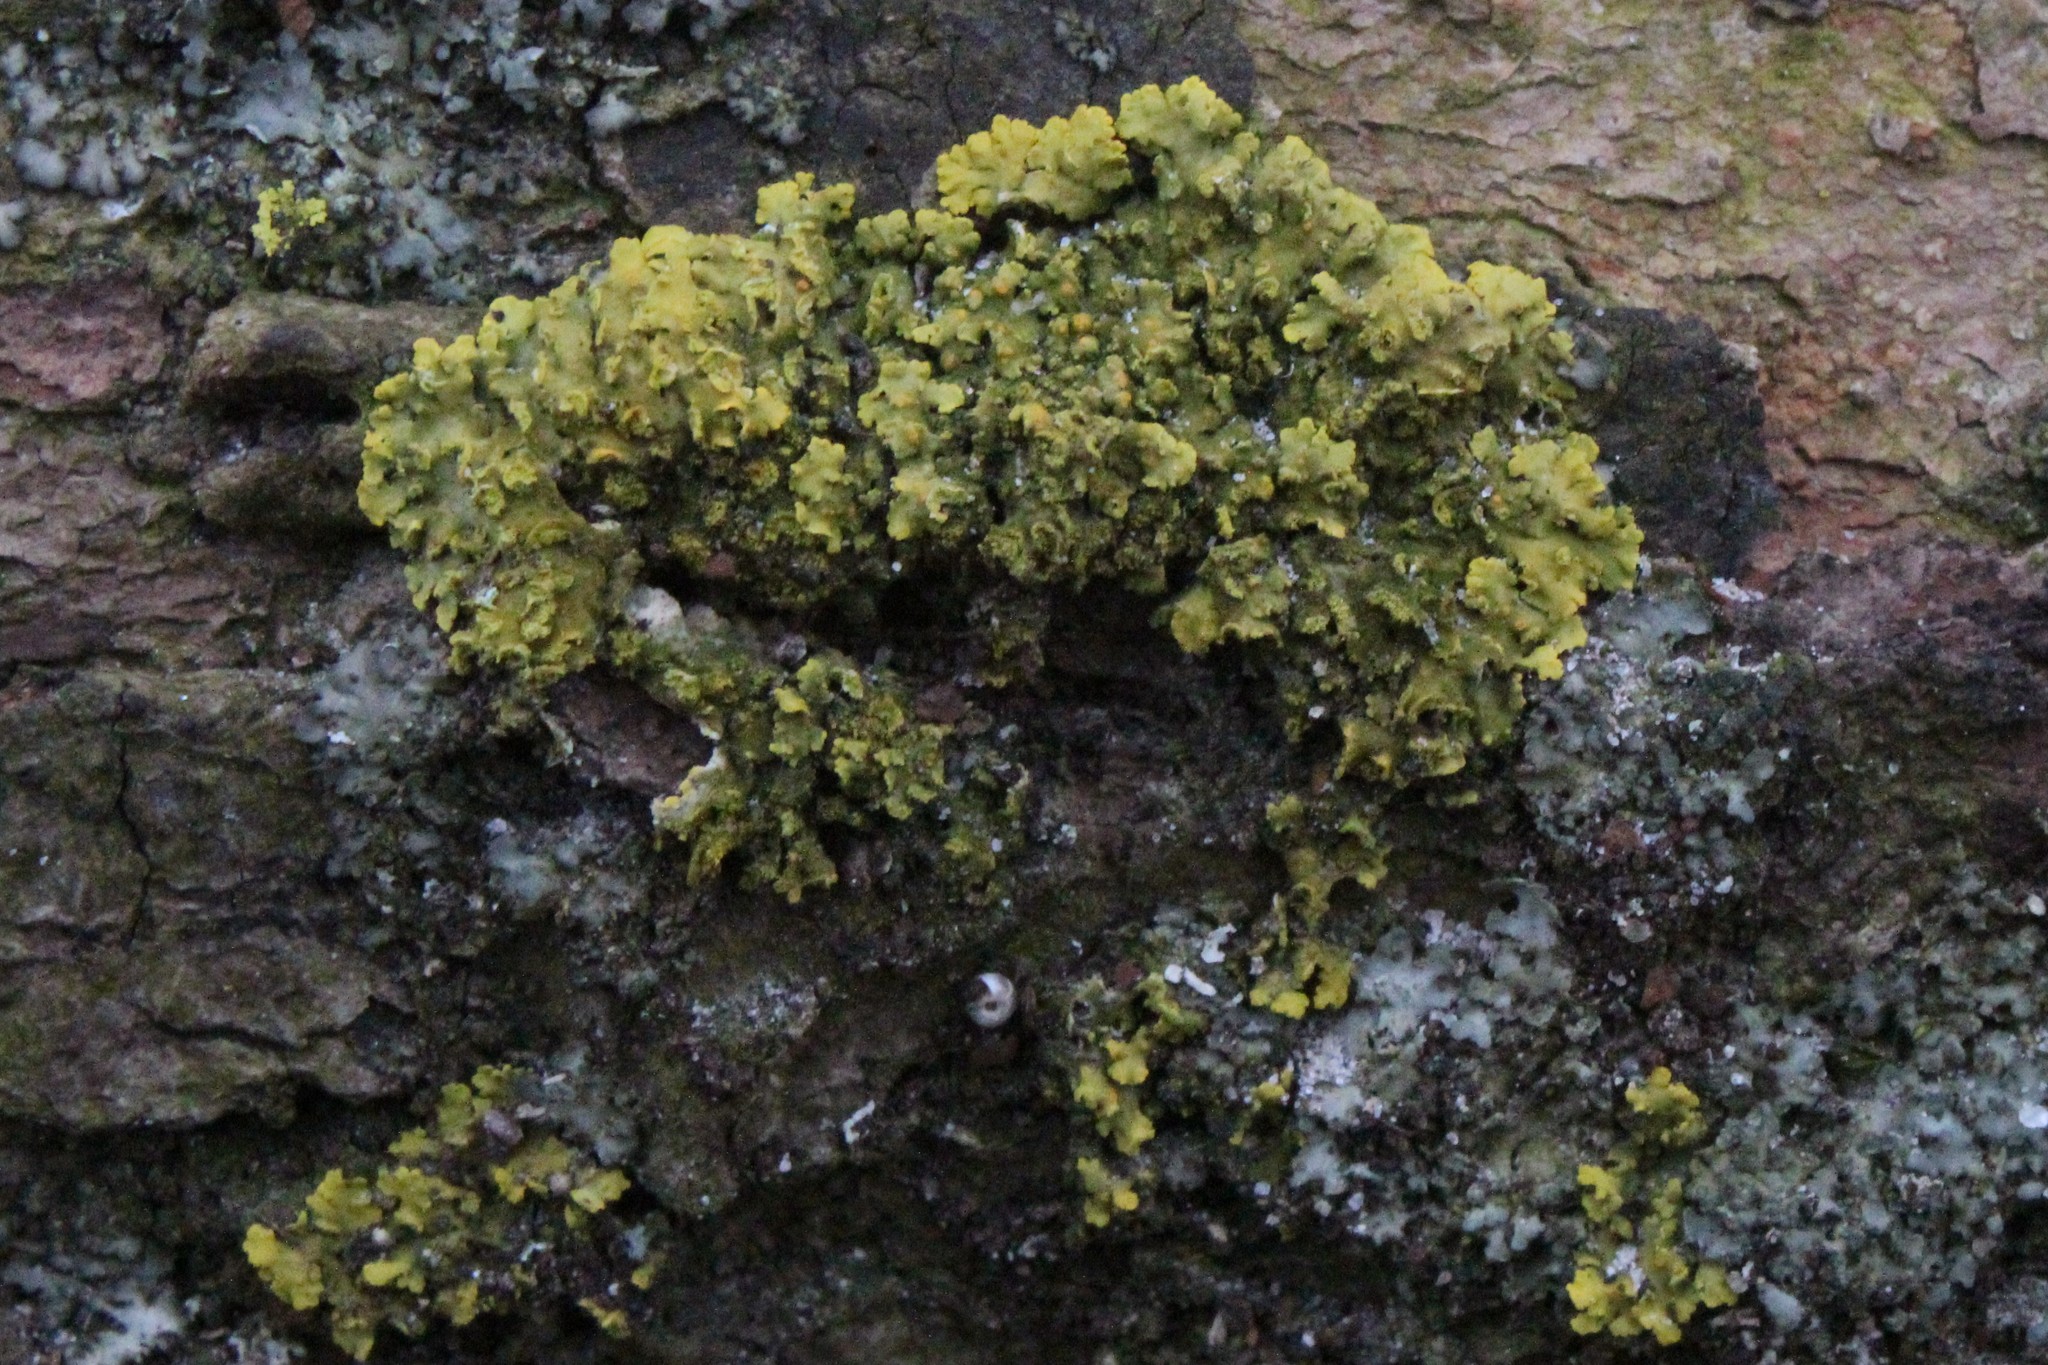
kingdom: Fungi
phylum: Ascomycota
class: Lecanoromycetes
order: Teloschistales
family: Teloschistaceae
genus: Oxneria
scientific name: Oxneria fallax
